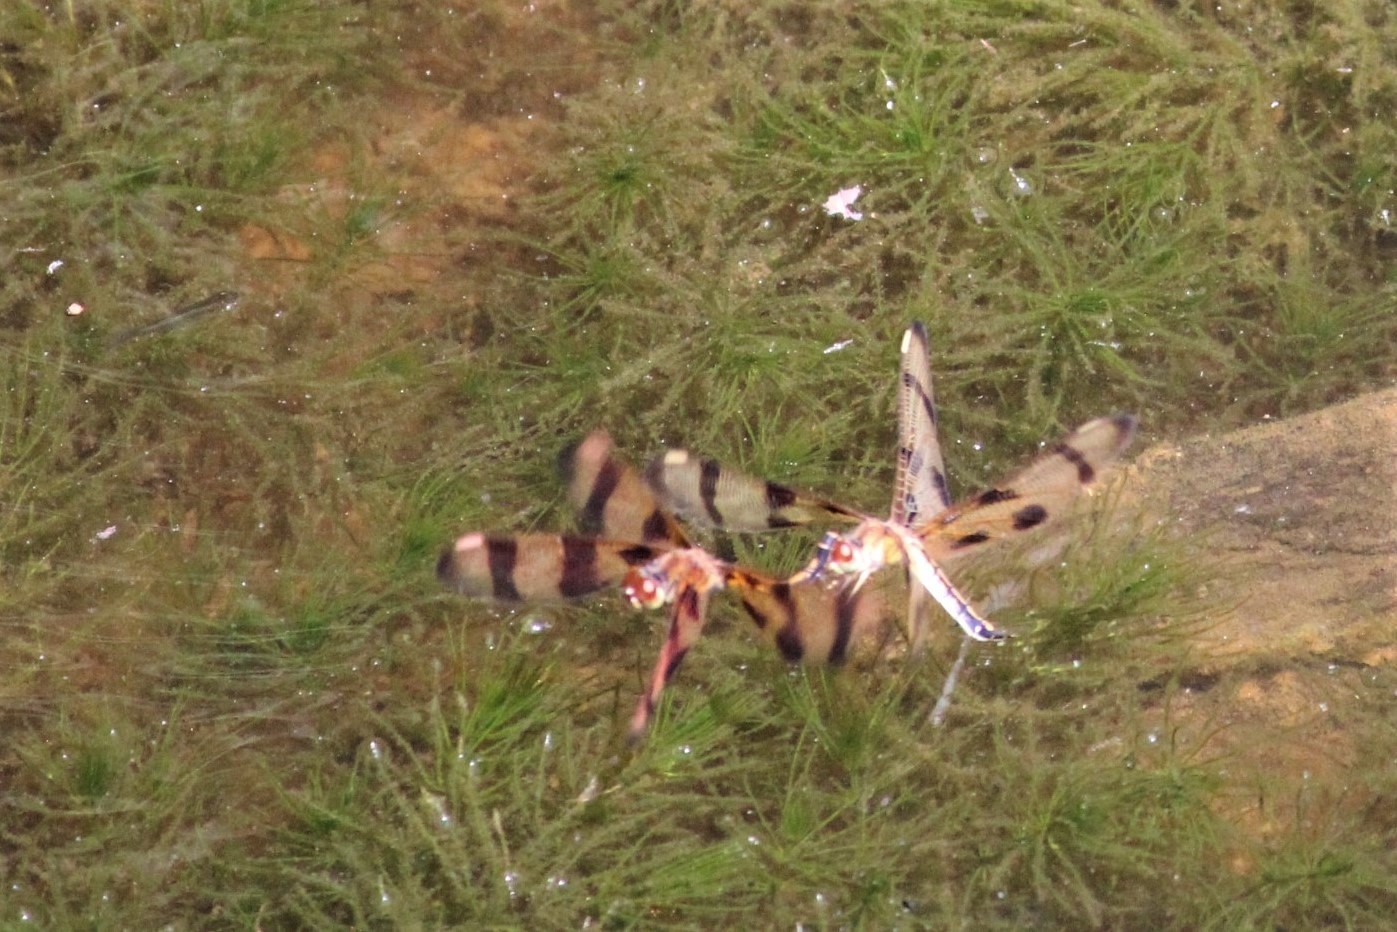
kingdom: Animalia
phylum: Arthropoda
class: Insecta
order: Odonata
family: Libellulidae
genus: Celithemis
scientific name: Celithemis eponina
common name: Halloween pennant
